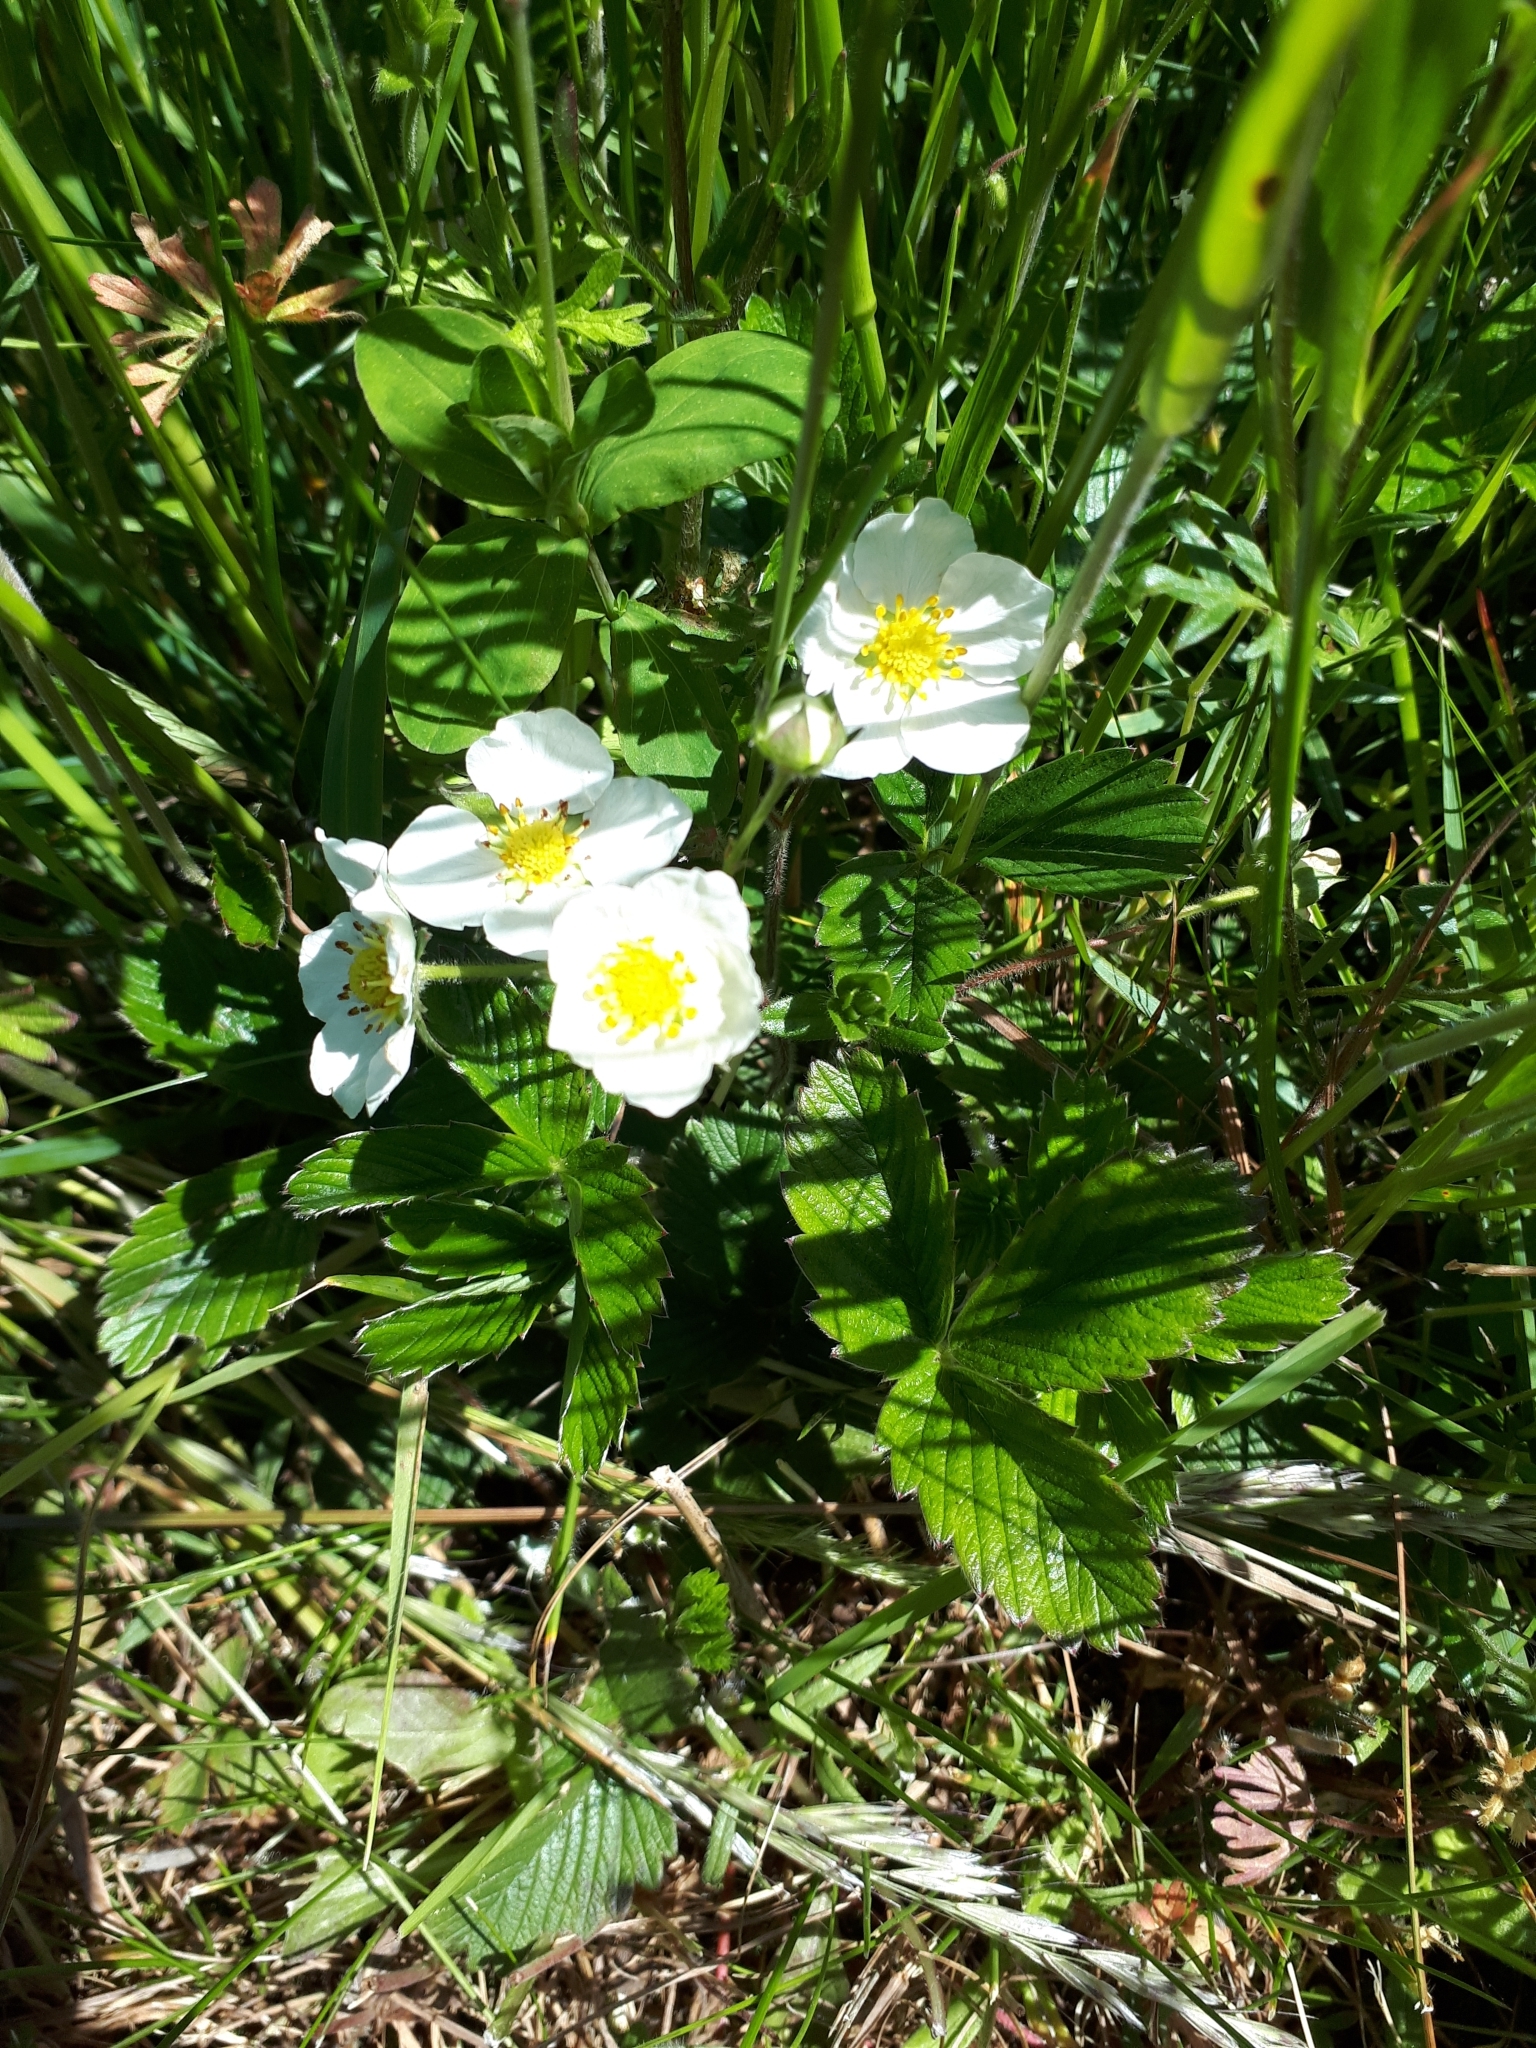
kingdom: Plantae
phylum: Tracheophyta
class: Magnoliopsida
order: Rosales
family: Rosaceae
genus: Fragaria
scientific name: Fragaria vesca
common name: Wild strawberry
